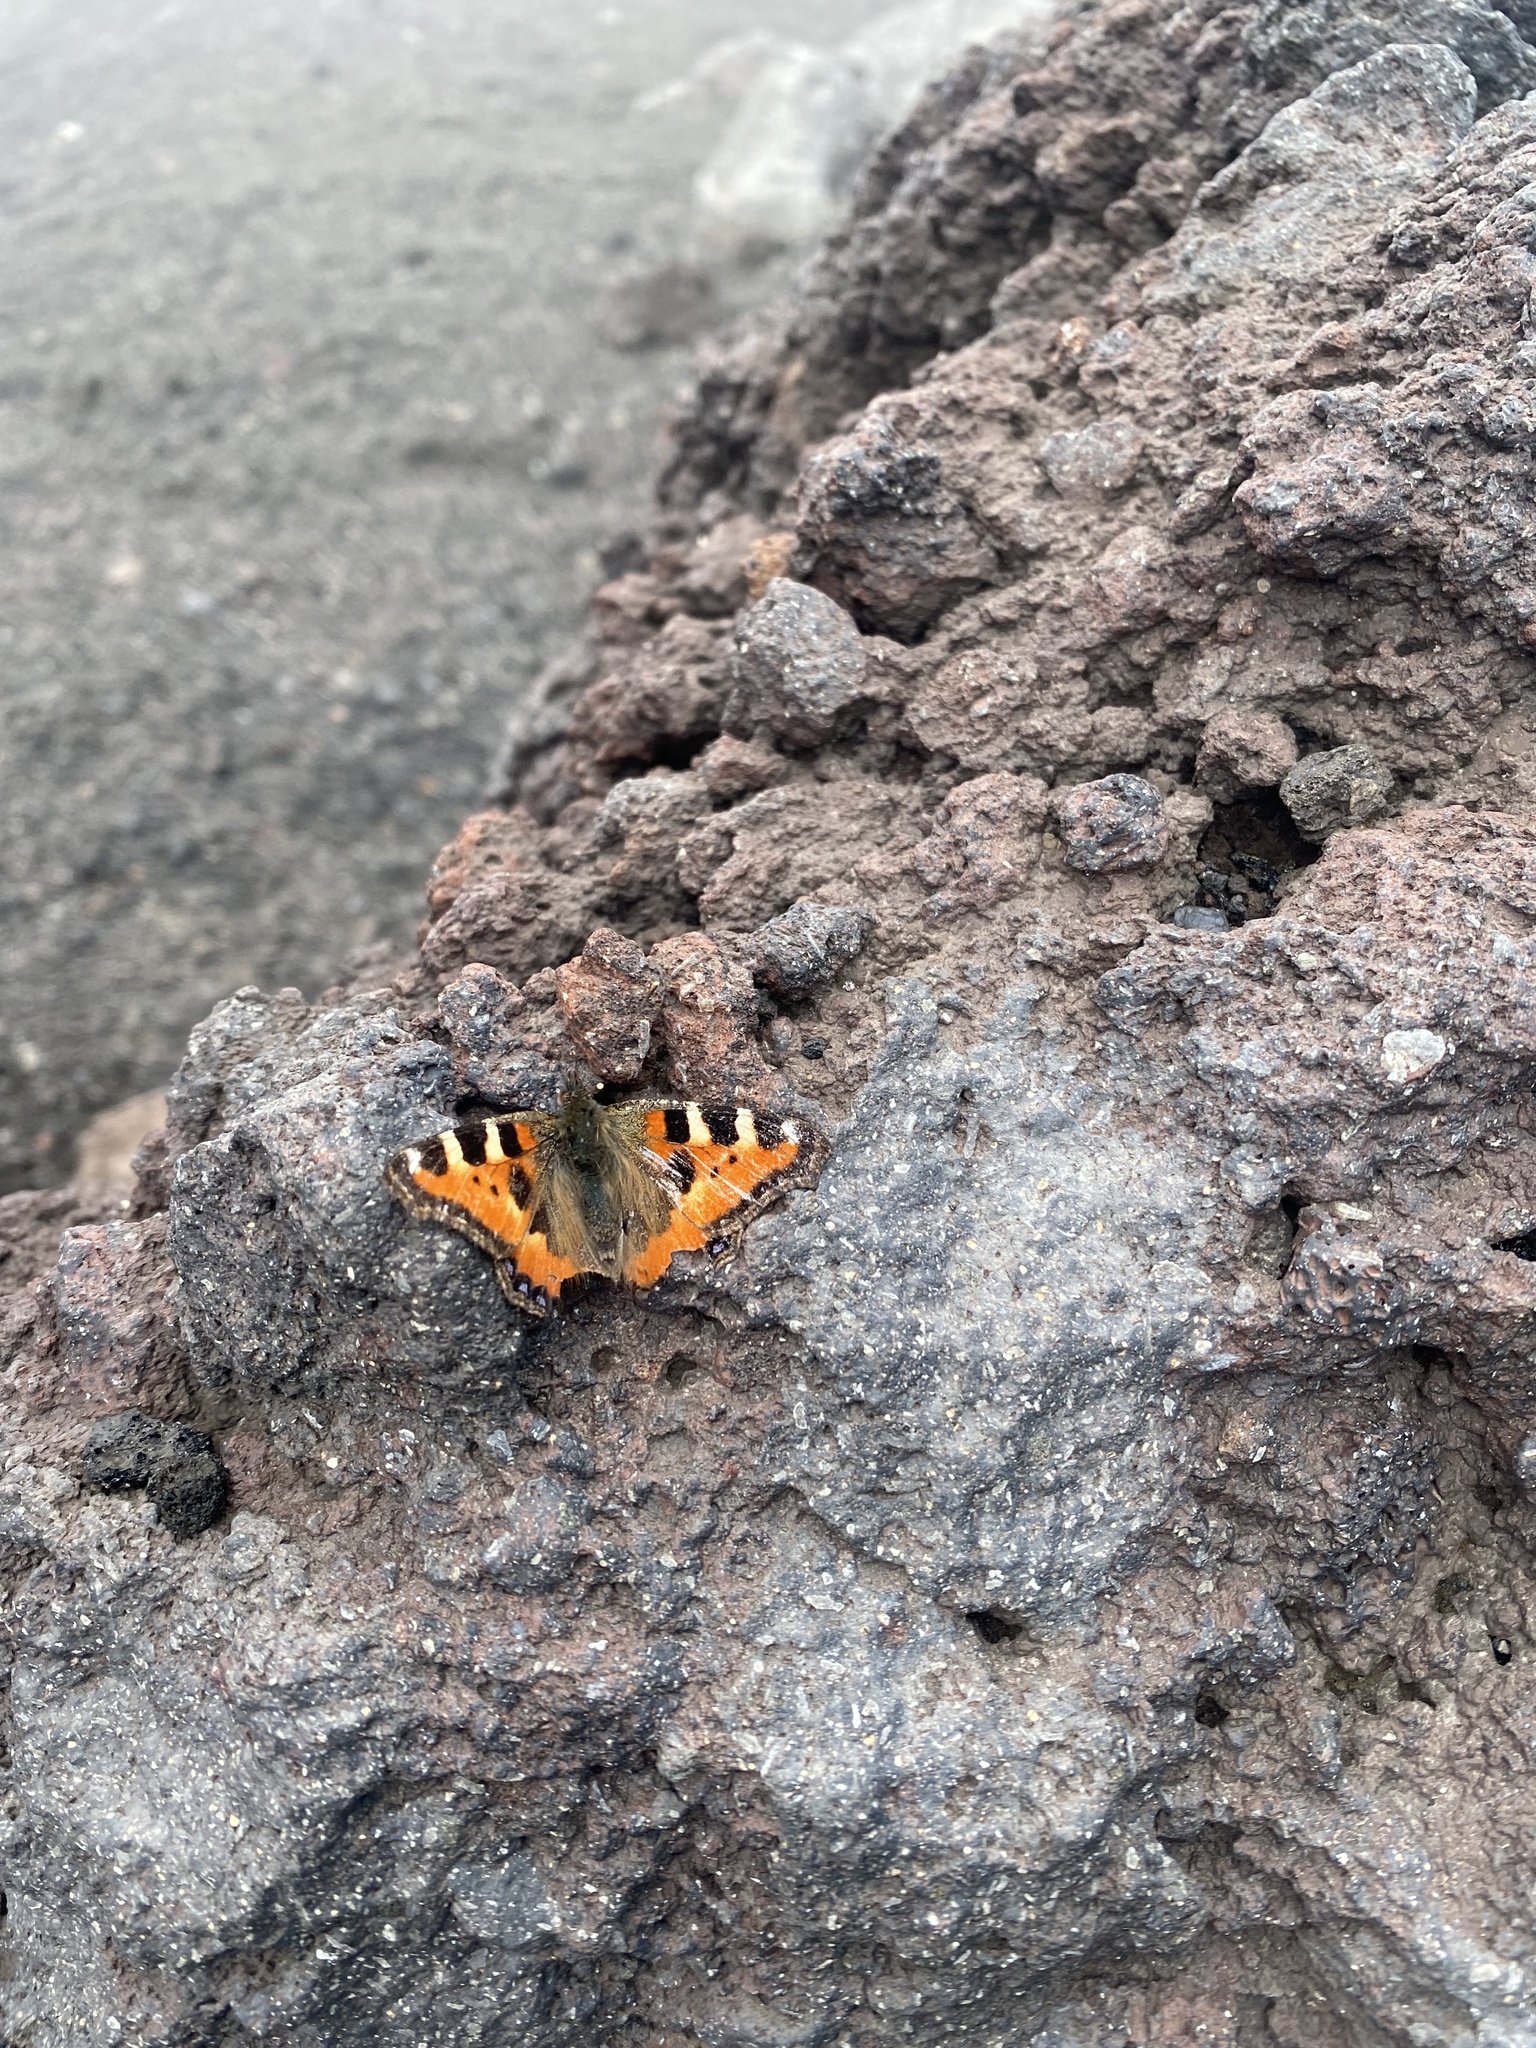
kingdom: Animalia
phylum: Arthropoda
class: Insecta
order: Lepidoptera
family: Nymphalidae
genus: Aglais
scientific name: Aglais urticae
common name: Small tortoiseshell
